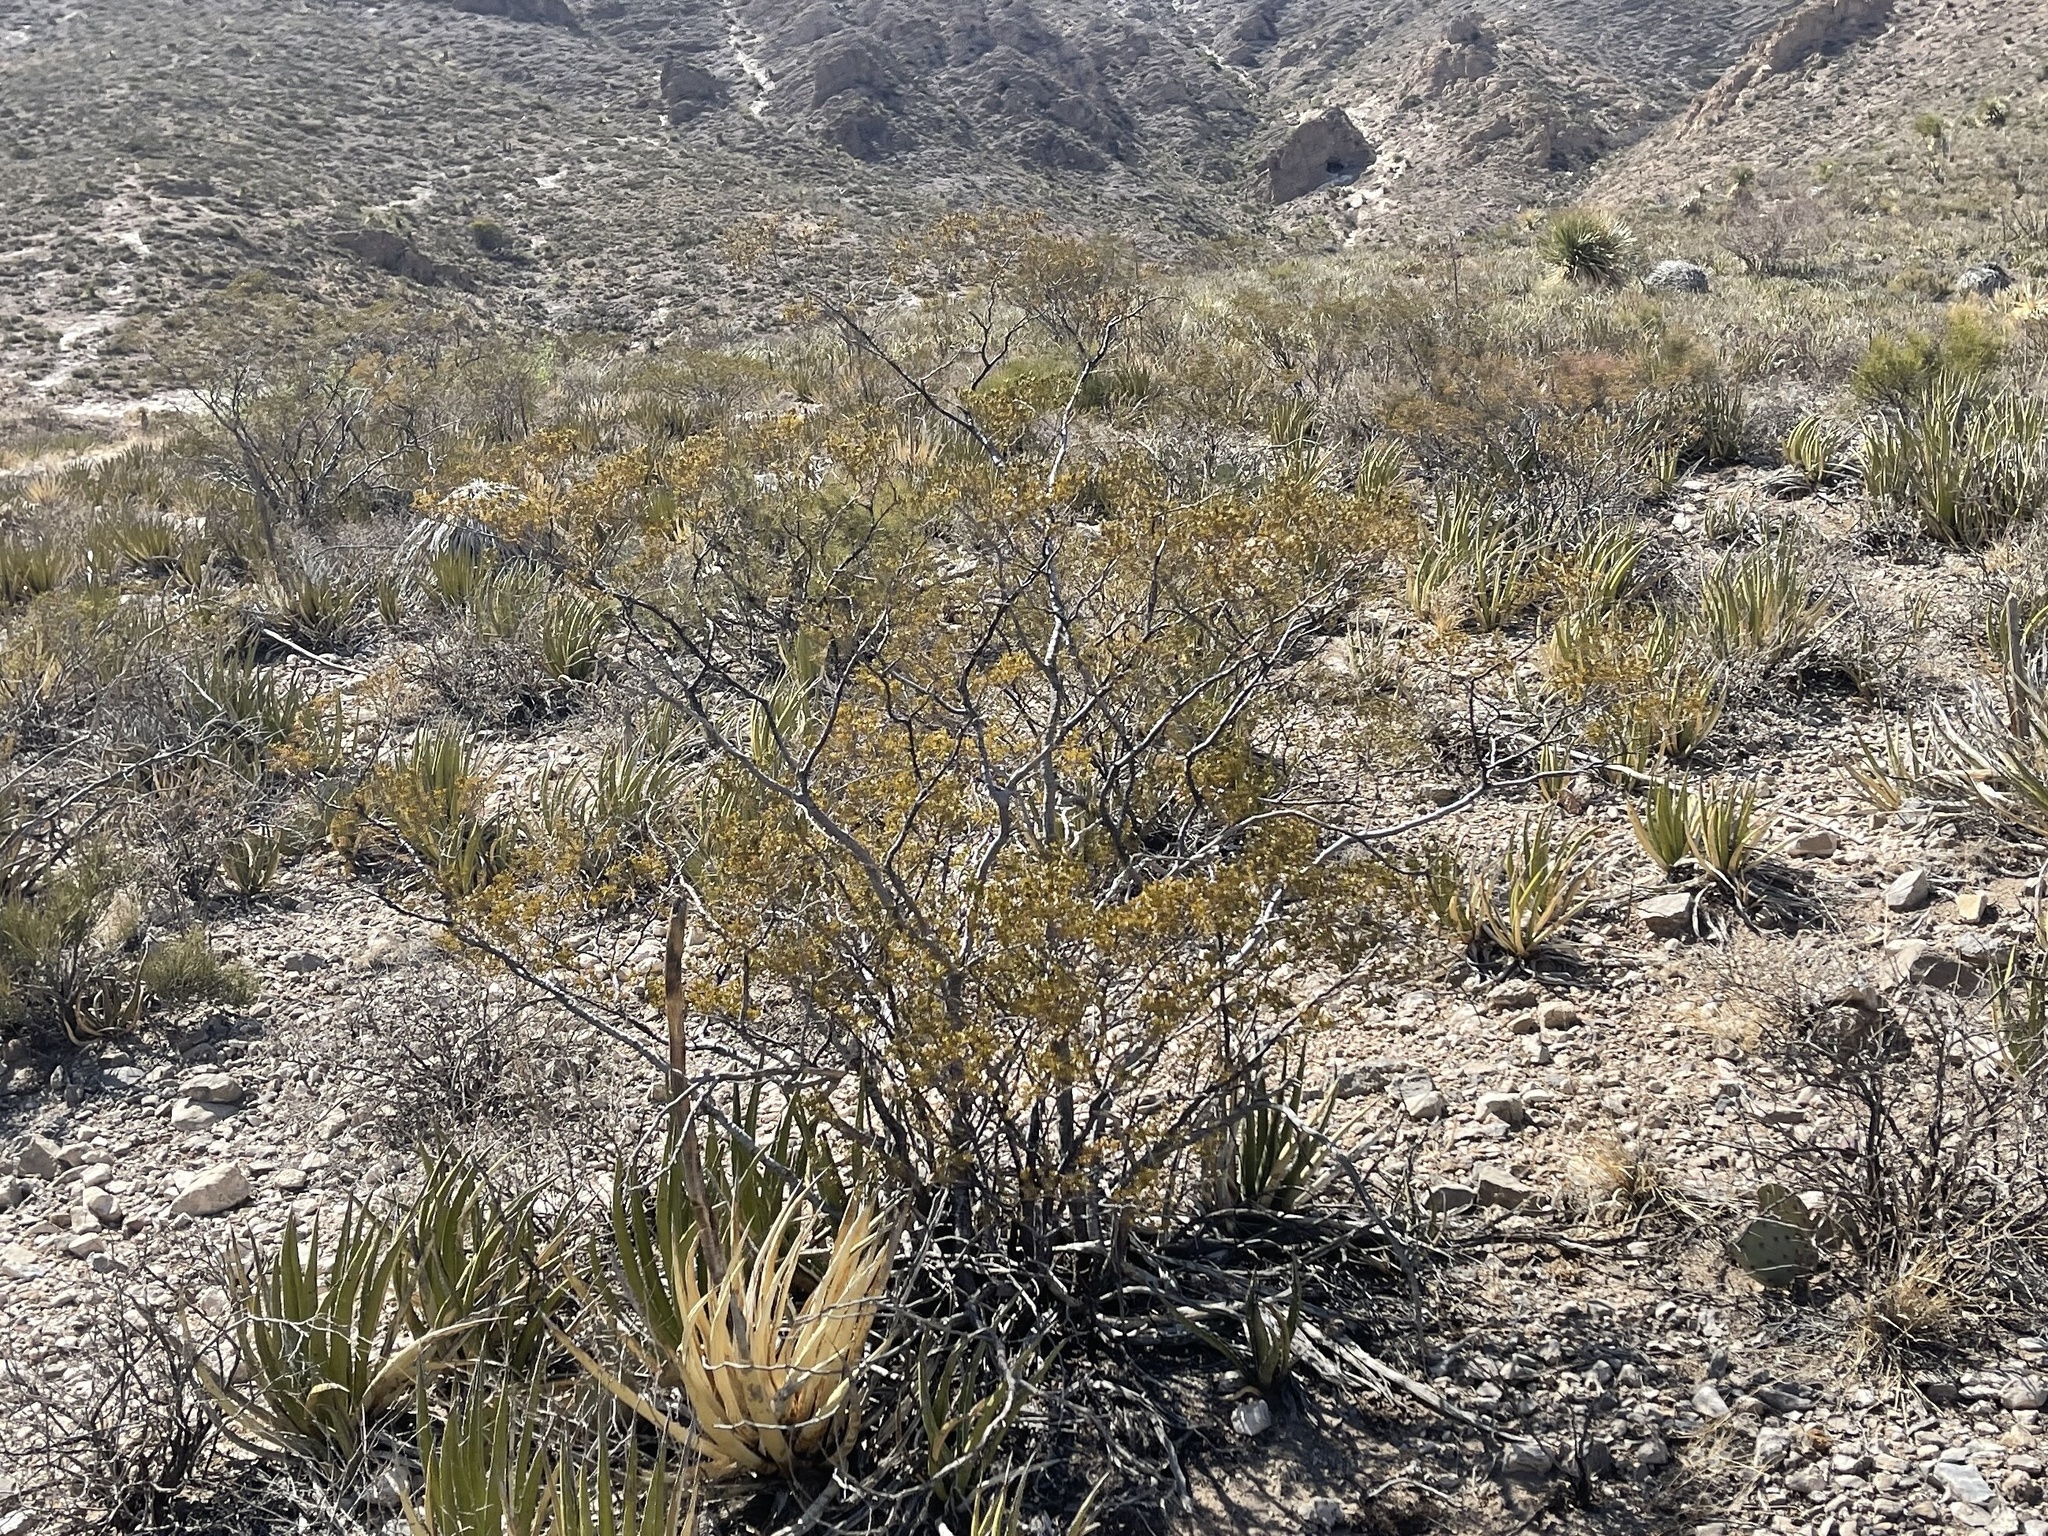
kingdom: Plantae
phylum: Tracheophyta
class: Magnoliopsida
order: Zygophyllales
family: Zygophyllaceae
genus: Larrea
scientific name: Larrea tridentata
